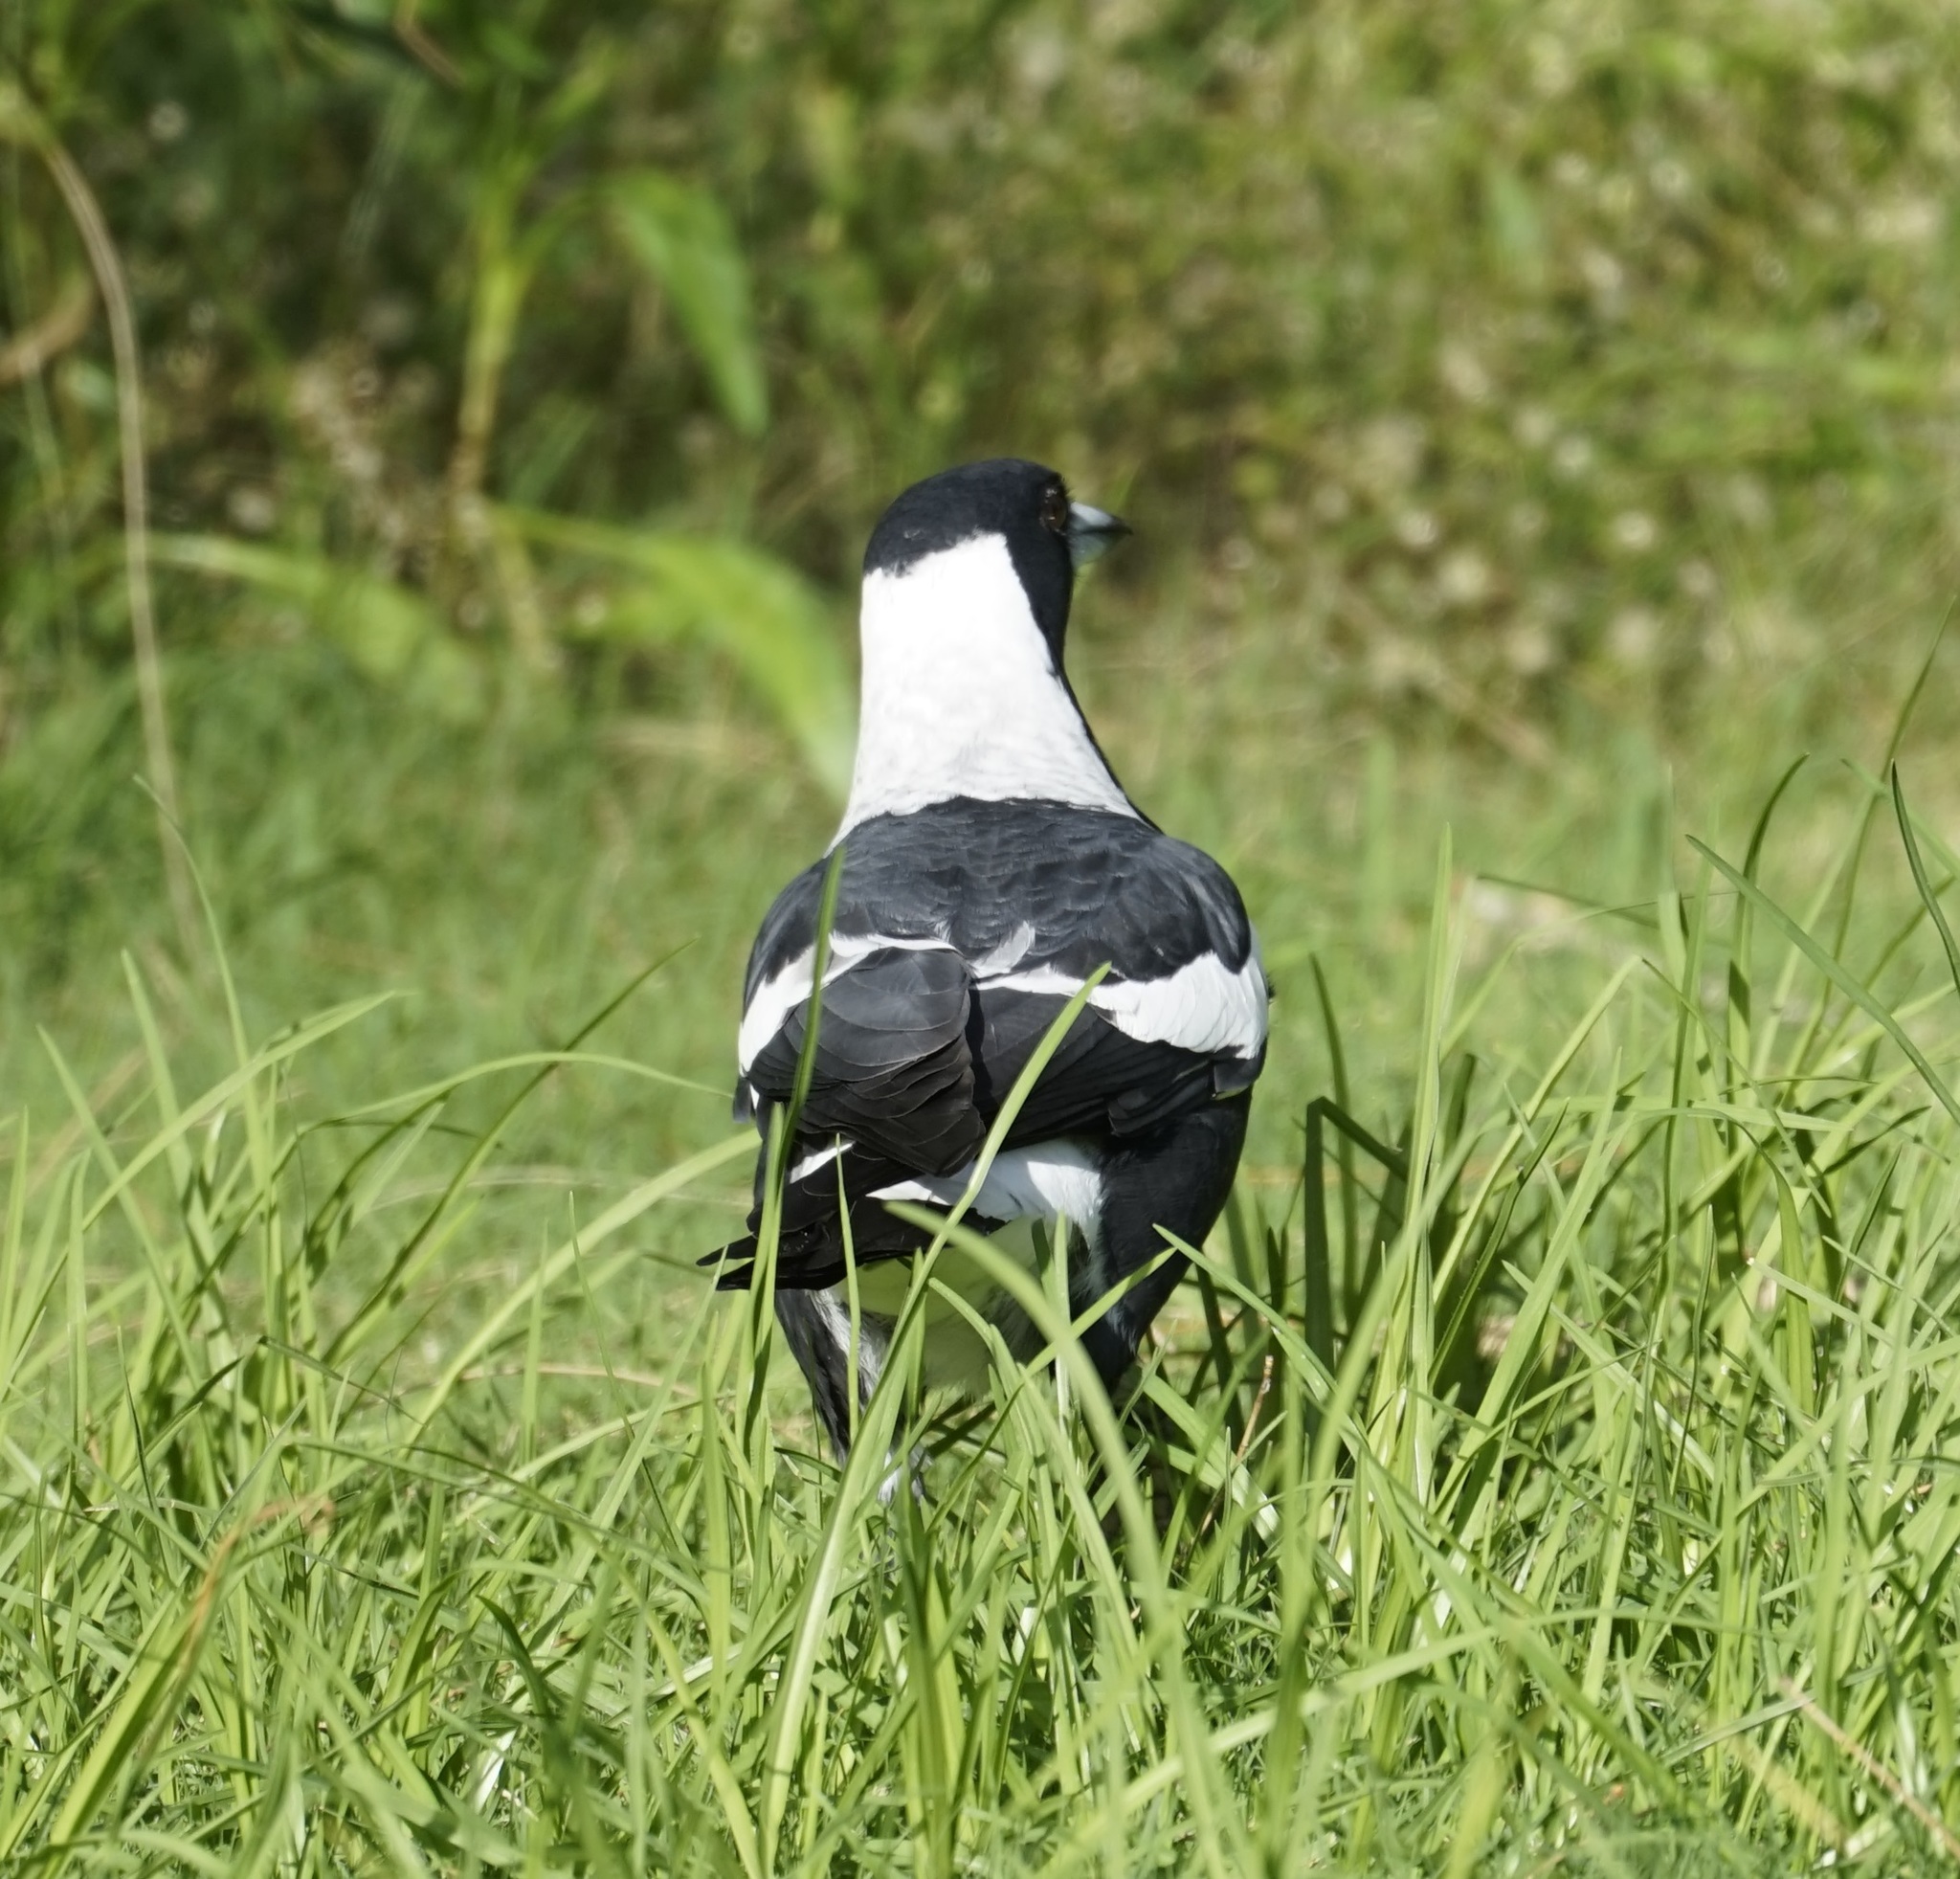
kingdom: Animalia
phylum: Chordata
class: Aves
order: Passeriformes
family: Cracticidae
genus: Gymnorhina
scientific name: Gymnorhina tibicen
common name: Australian magpie
